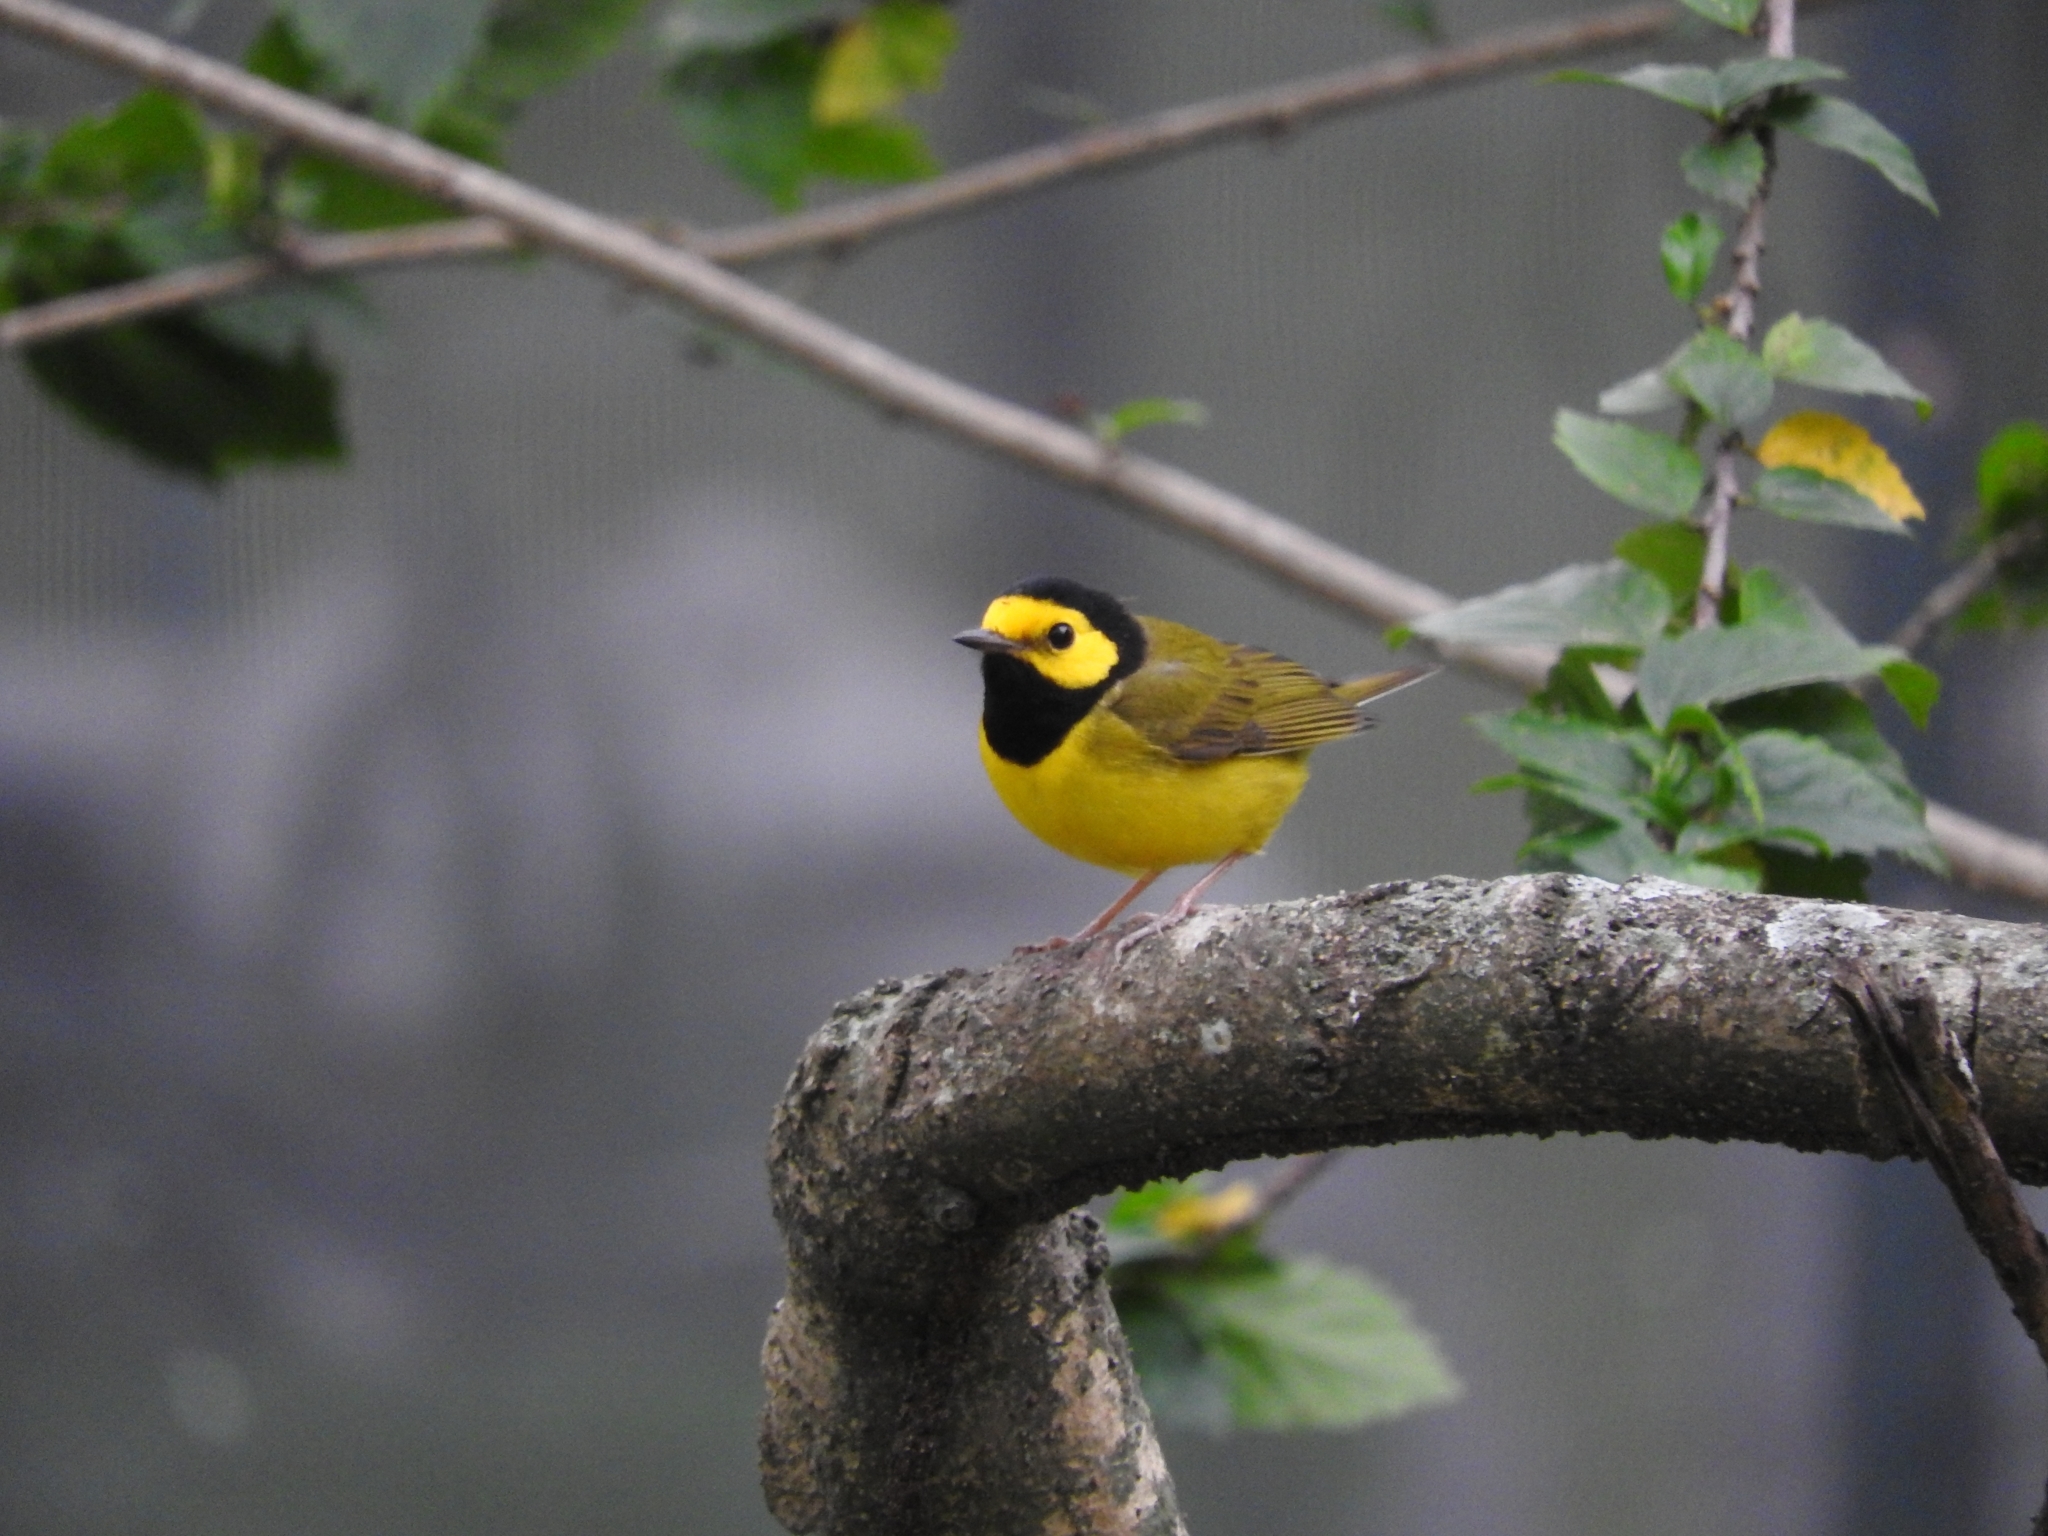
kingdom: Animalia
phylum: Chordata
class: Aves
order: Passeriformes
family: Parulidae
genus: Setophaga
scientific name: Setophaga citrina
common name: Hooded warbler
